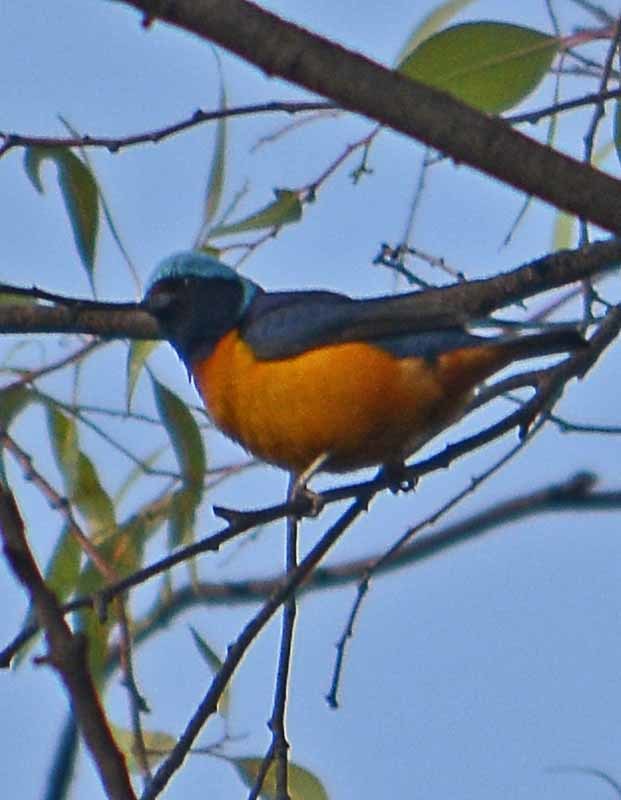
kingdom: Animalia
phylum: Chordata
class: Aves
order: Passeriformes
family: Fringillidae
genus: Euphonia
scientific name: Euphonia elegantissima
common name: Elegant euphonia
